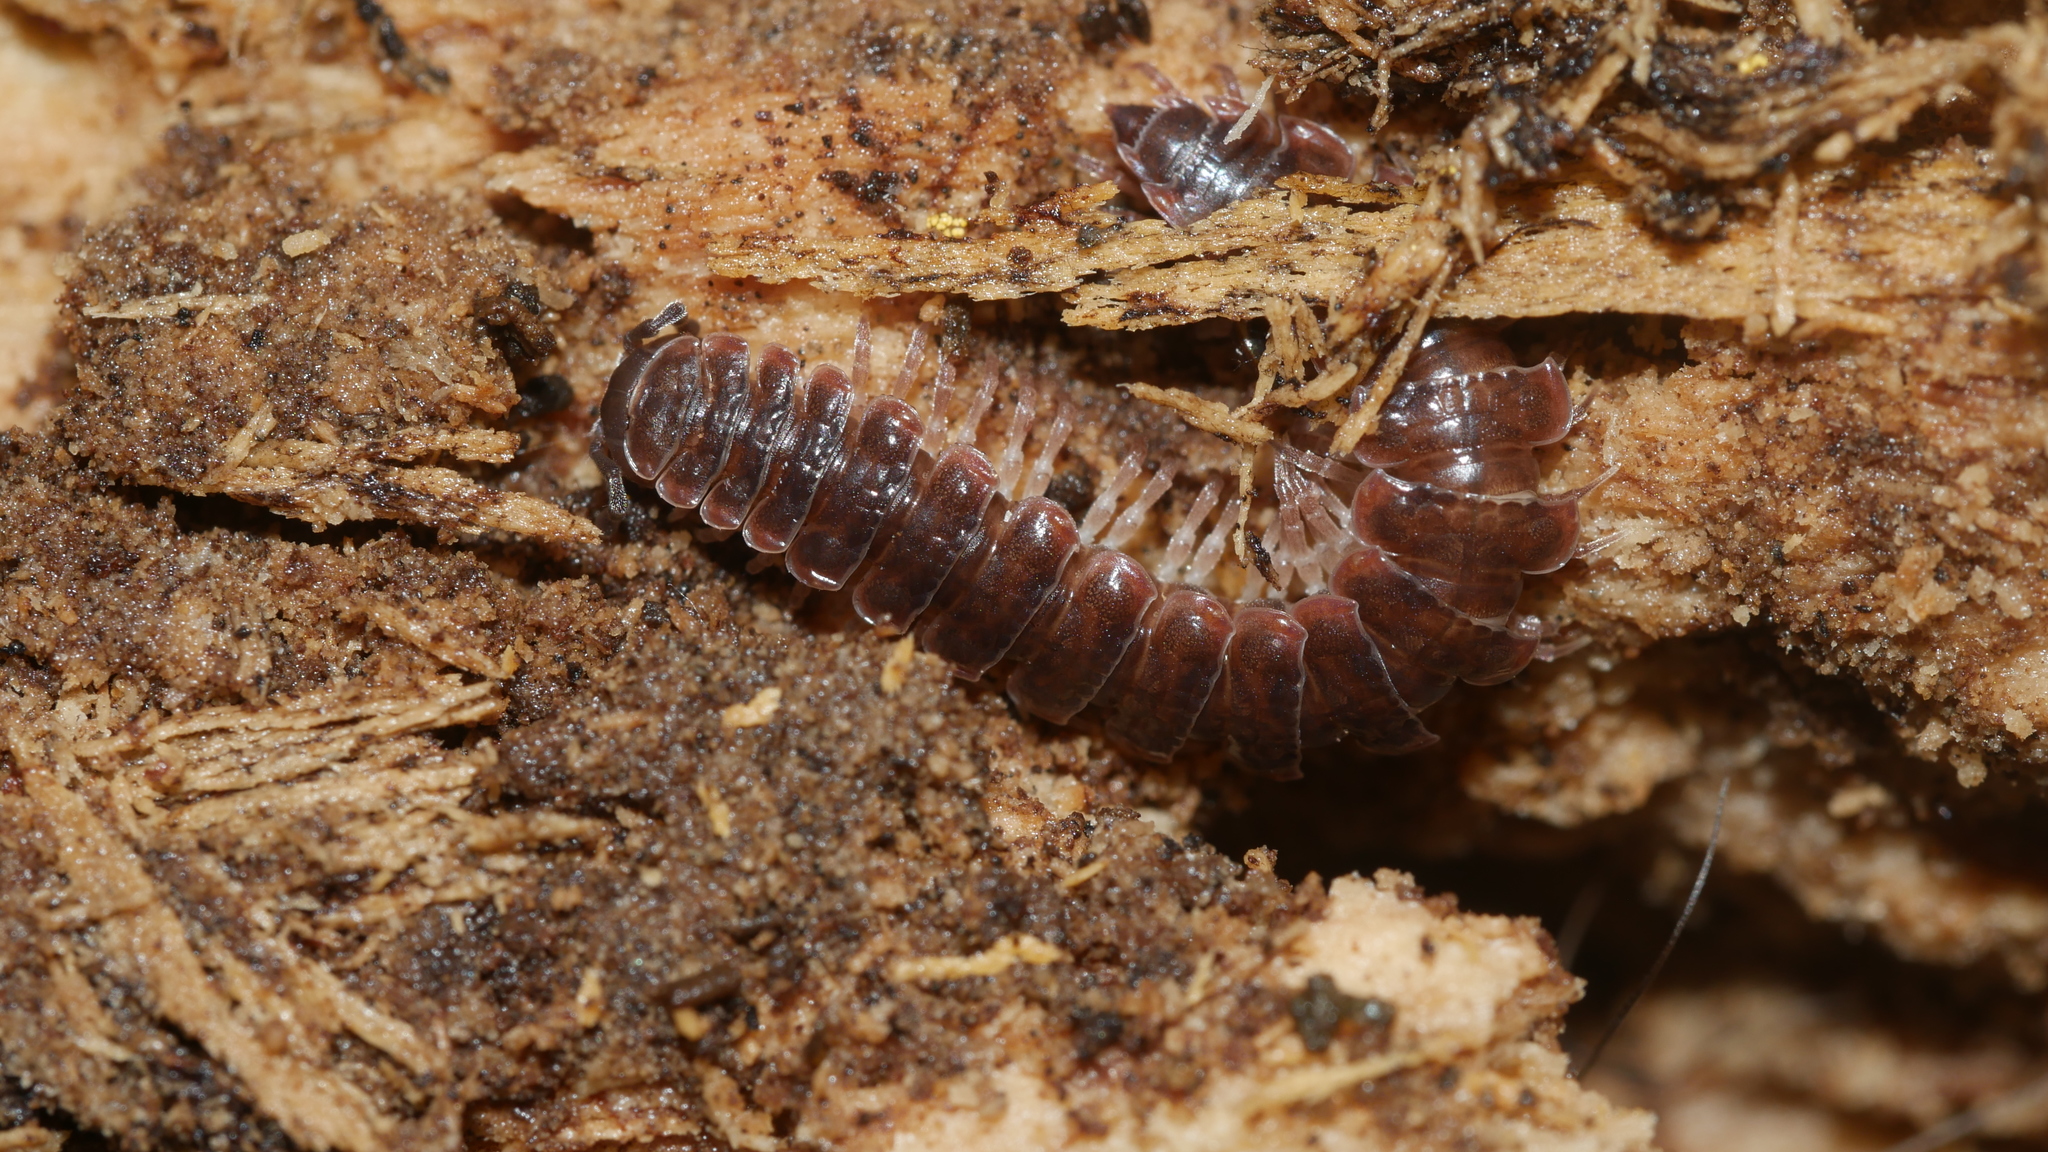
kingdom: Animalia
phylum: Arthropoda
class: Diplopoda
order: Polydesmida
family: Polydesmidae
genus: Pseudopolydesmus
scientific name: Pseudopolydesmus serratus
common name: Common pink flat-back millipede
